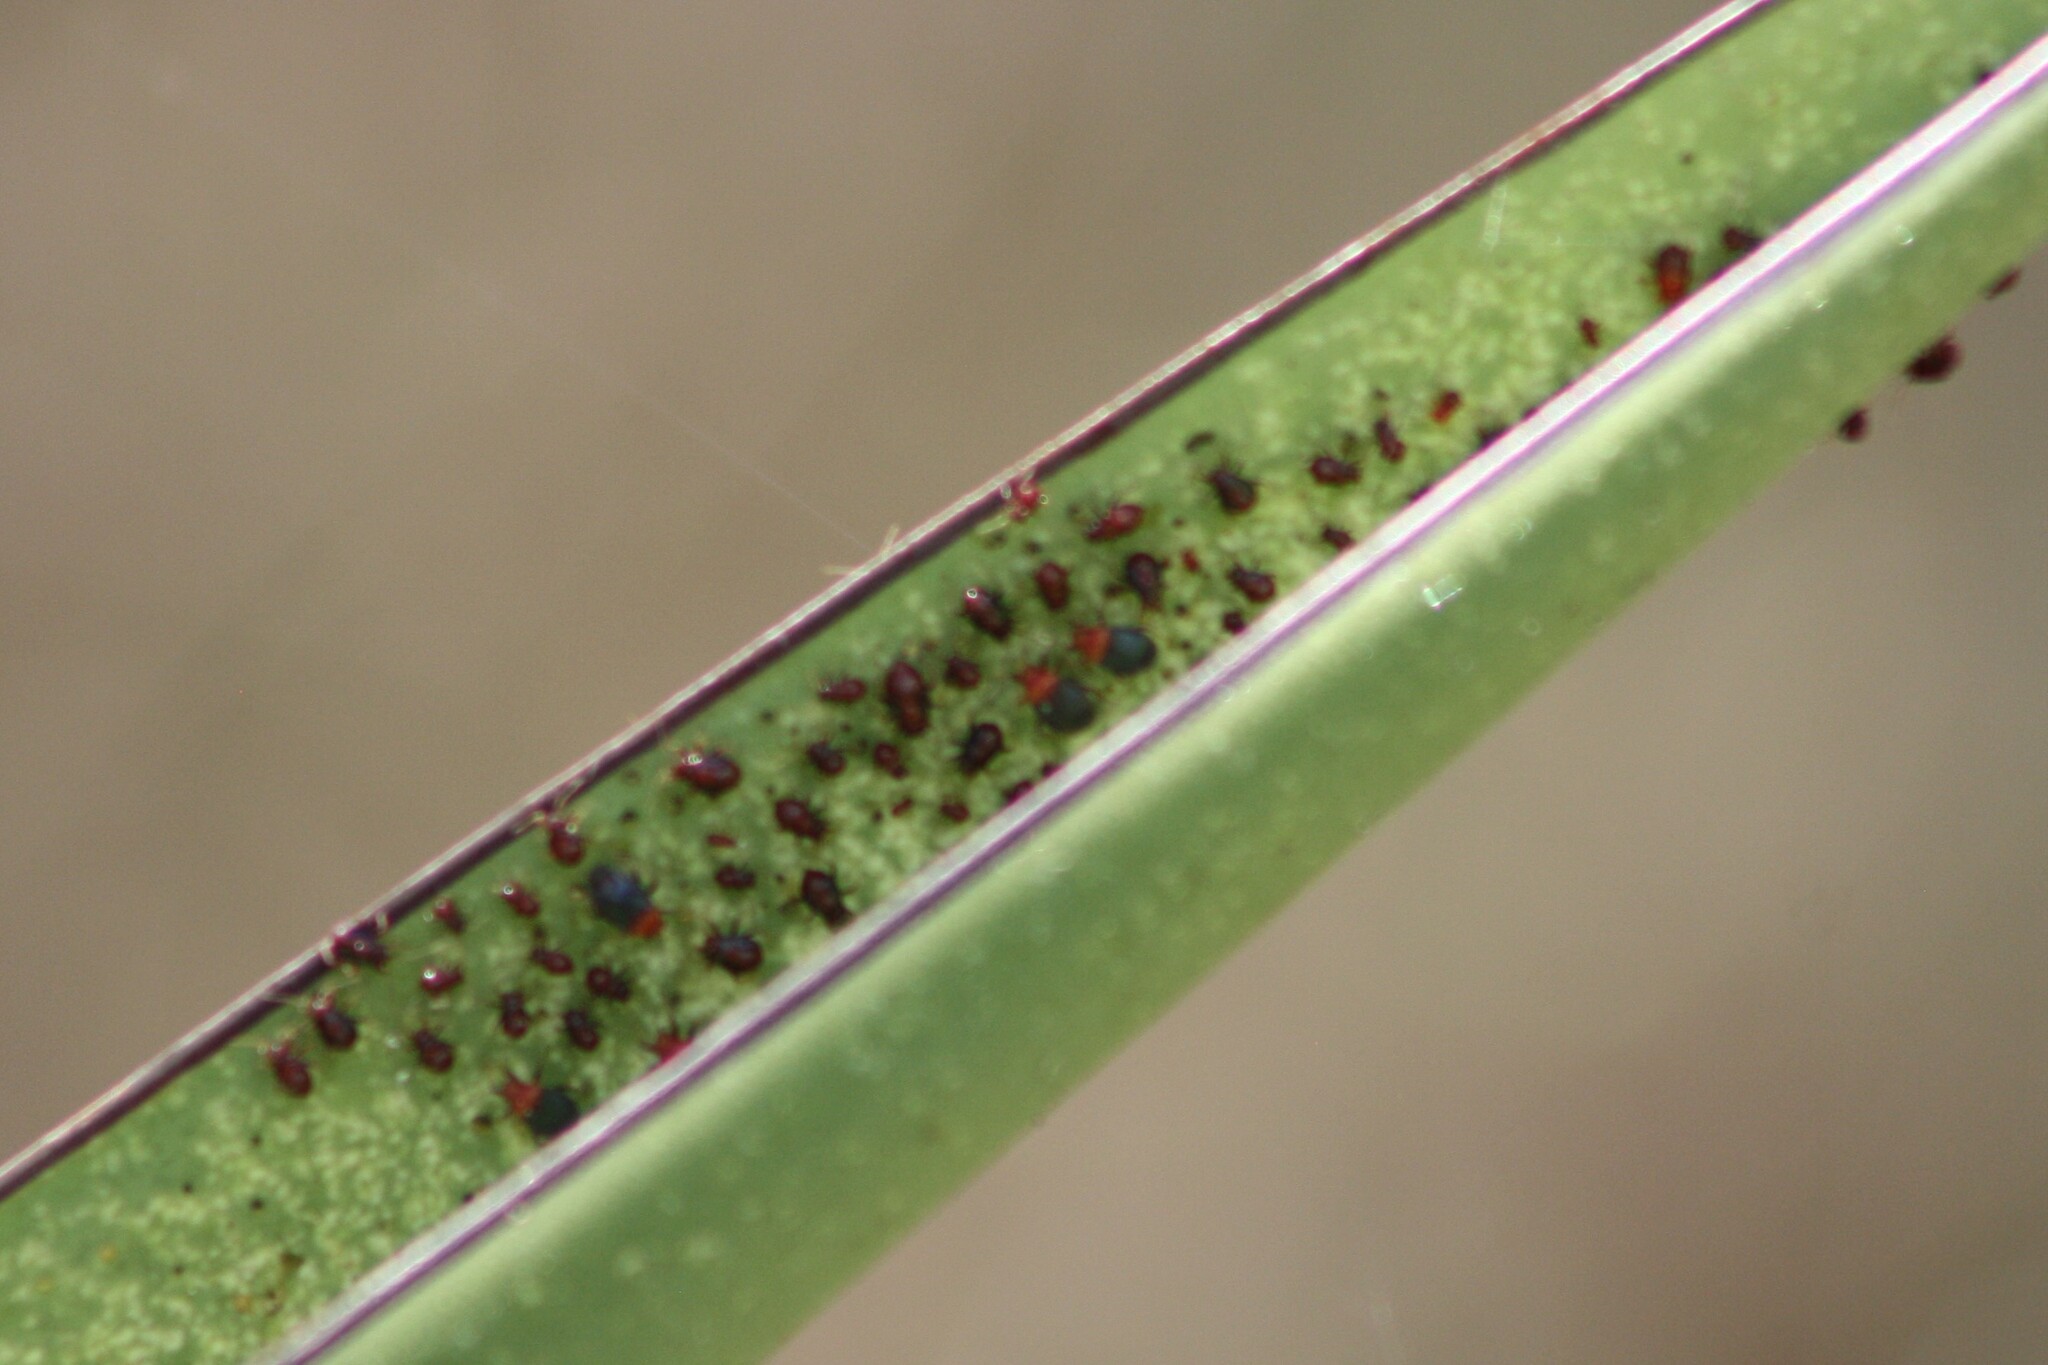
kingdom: Animalia
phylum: Arthropoda
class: Insecta
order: Hemiptera
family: Miridae
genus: Halticotoma
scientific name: Halticotoma valida
